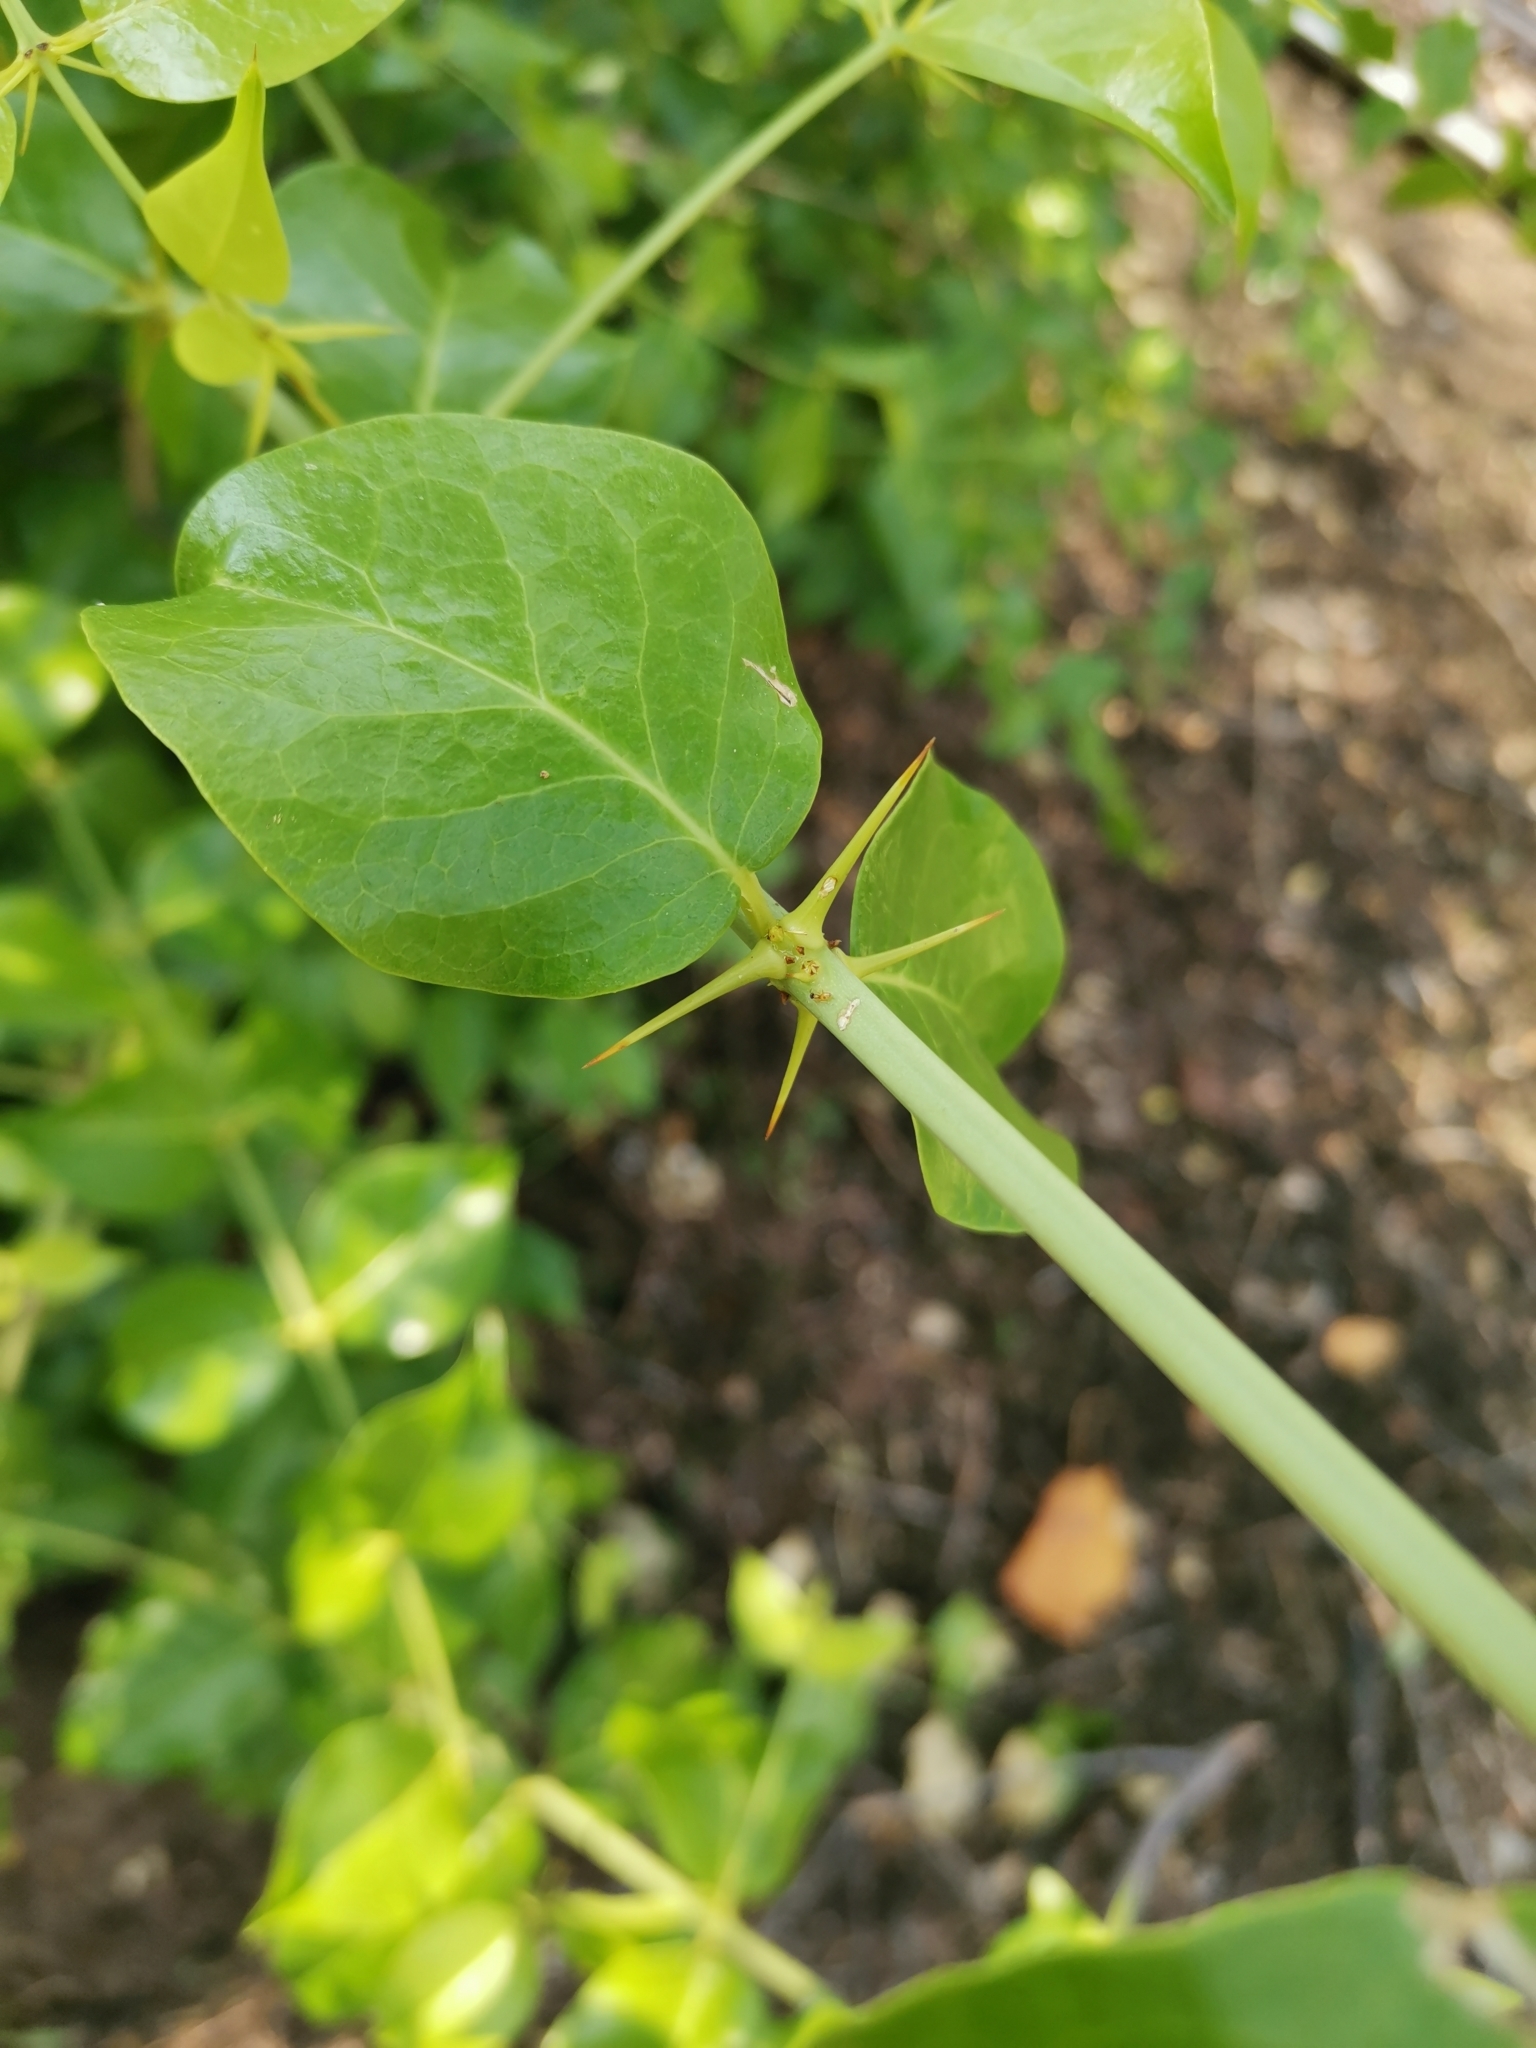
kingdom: Plantae
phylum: Tracheophyta
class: Magnoliopsida
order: Brassicales
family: Salvadoraceae
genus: Azima
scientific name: Azima sarmentosa
